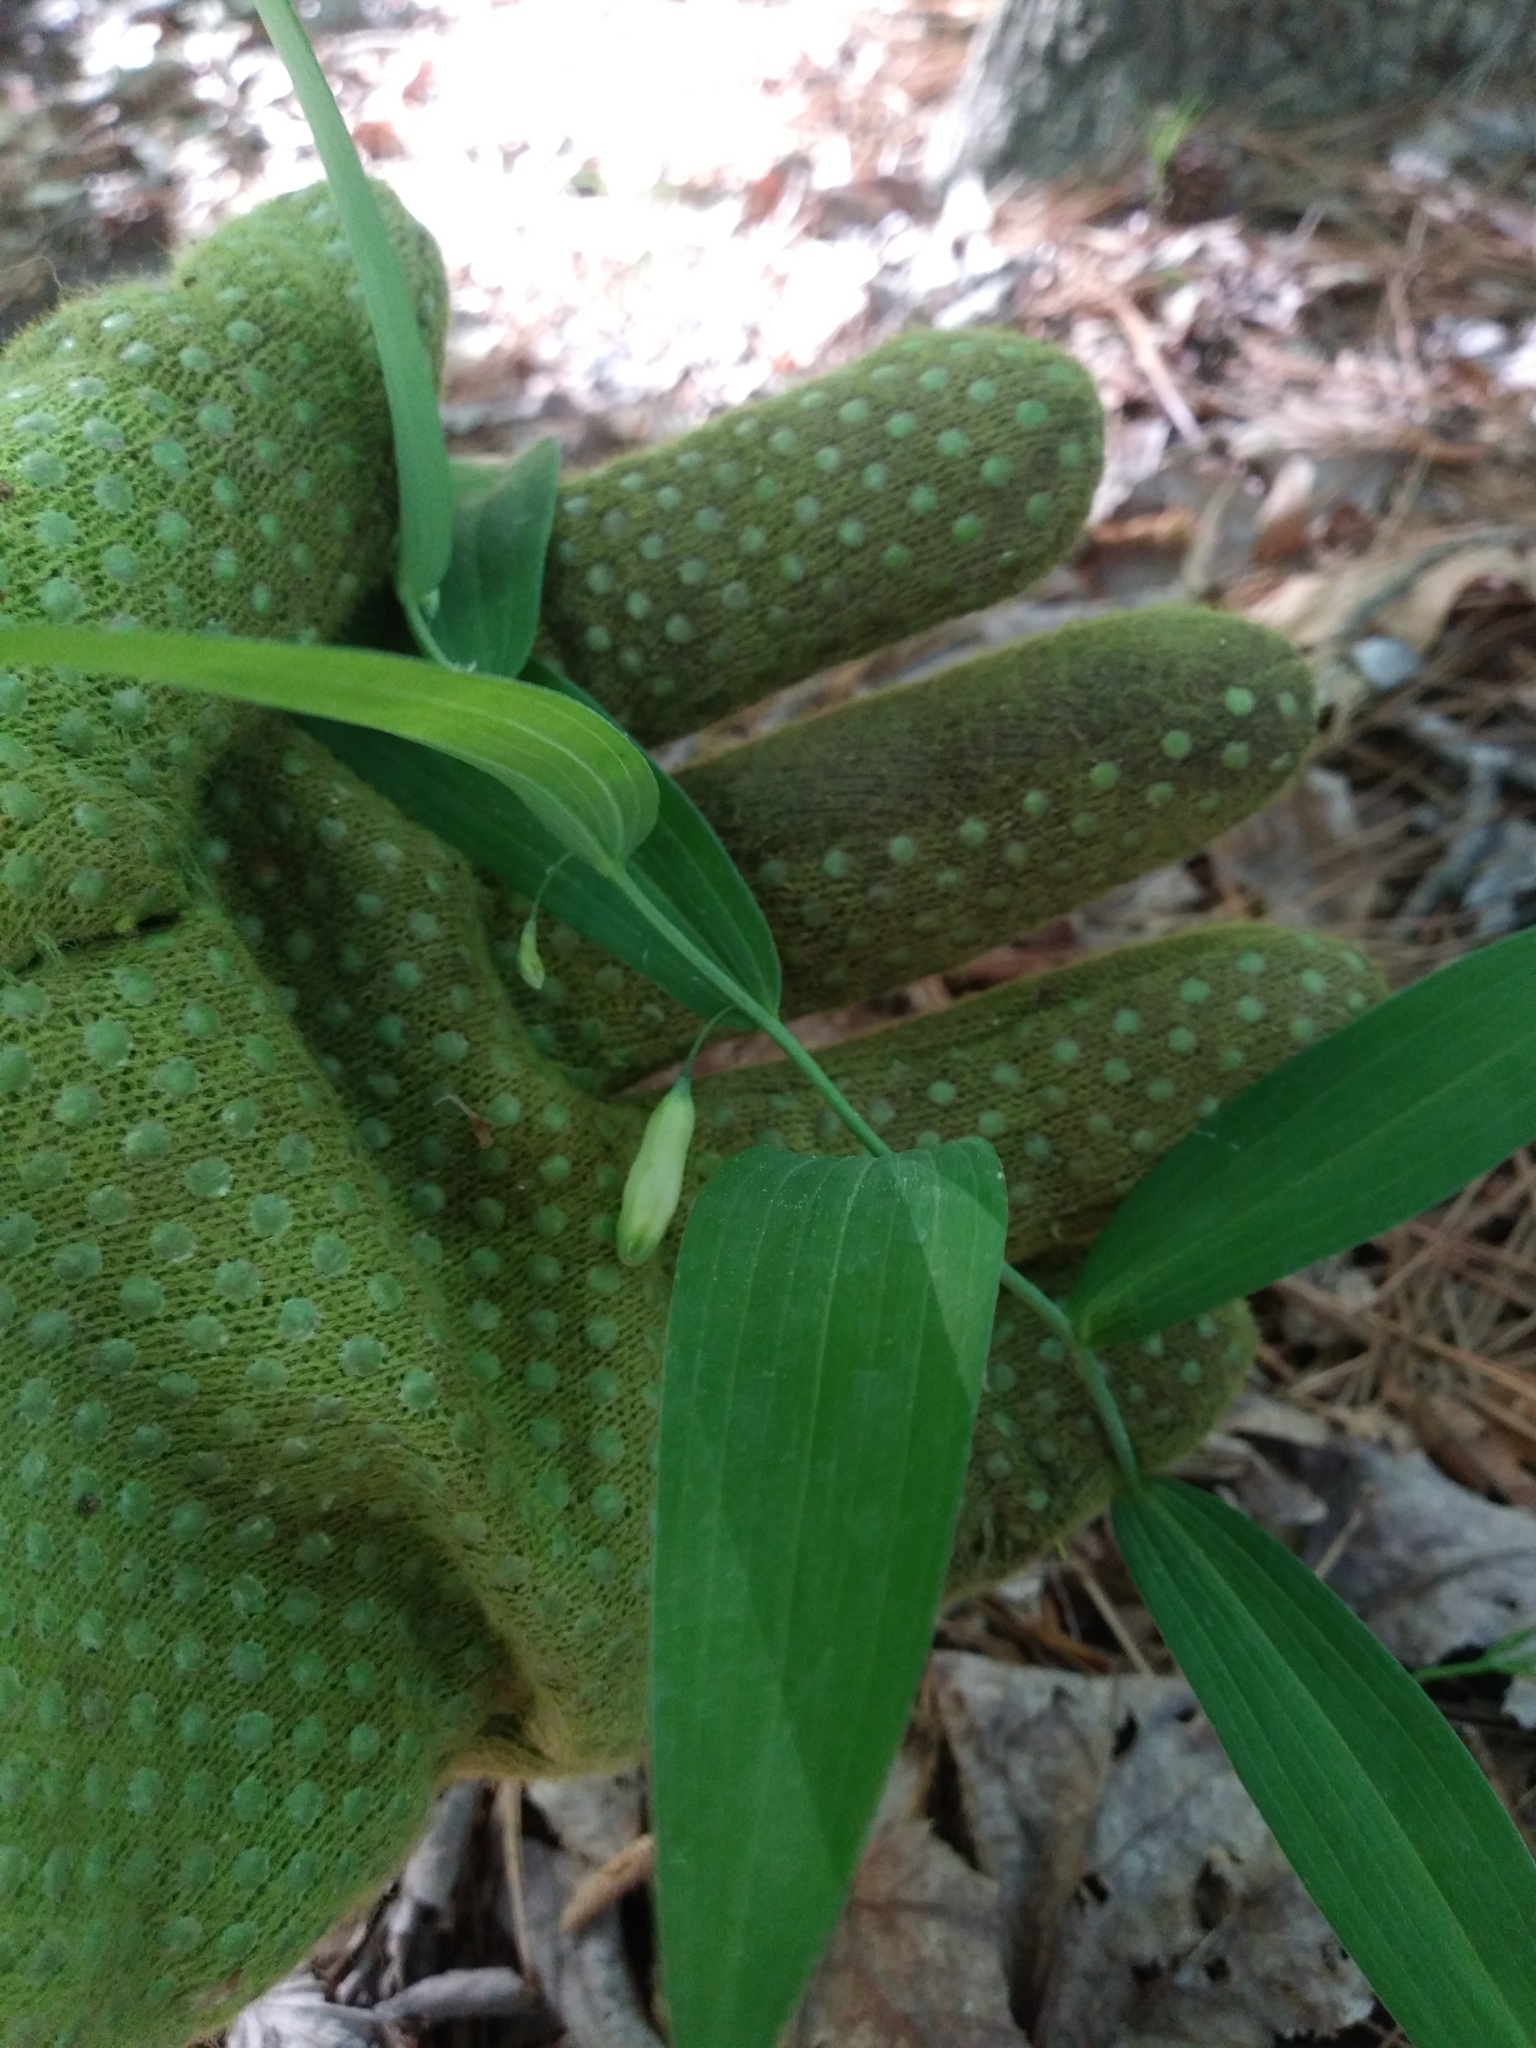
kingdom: Plantae
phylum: Tracheophyta
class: Liliopsida
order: Asparagales
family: Asparagaceae
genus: Polygonatum
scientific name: Polygonatum biflorum
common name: American solomon's-seal
